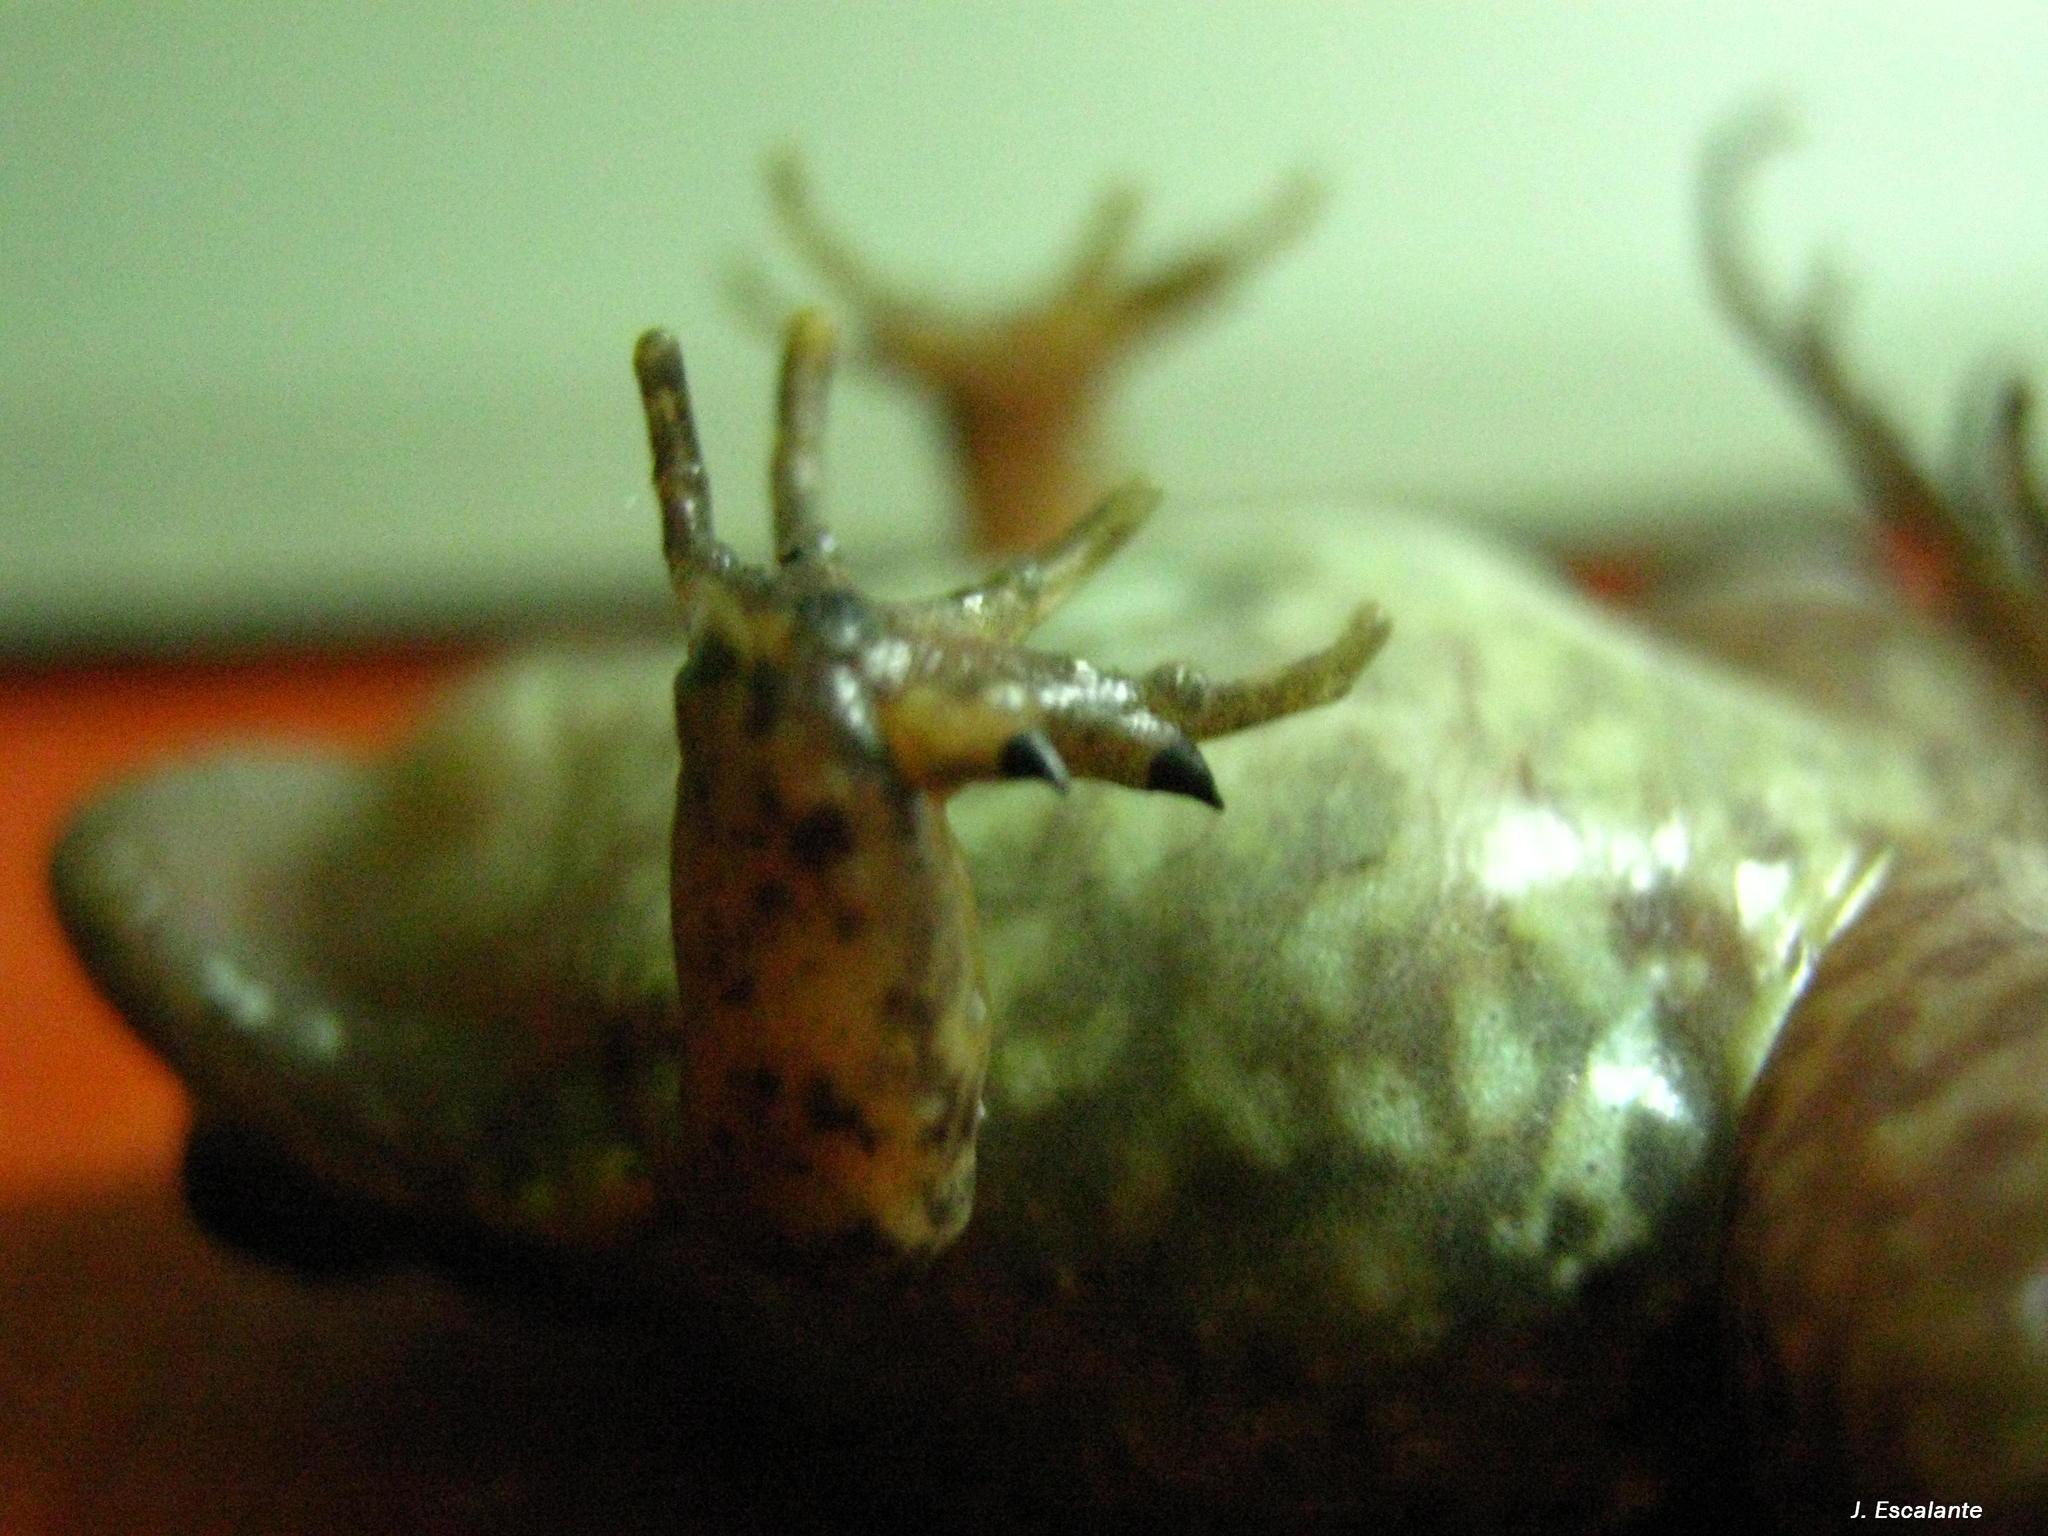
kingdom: Animalia
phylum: Chordata
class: Amphibia
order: Anura
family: Leptodactylidae
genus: Leptodactylus
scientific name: Leptodactylus melanonotus
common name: Fringe-toed foamfrog
